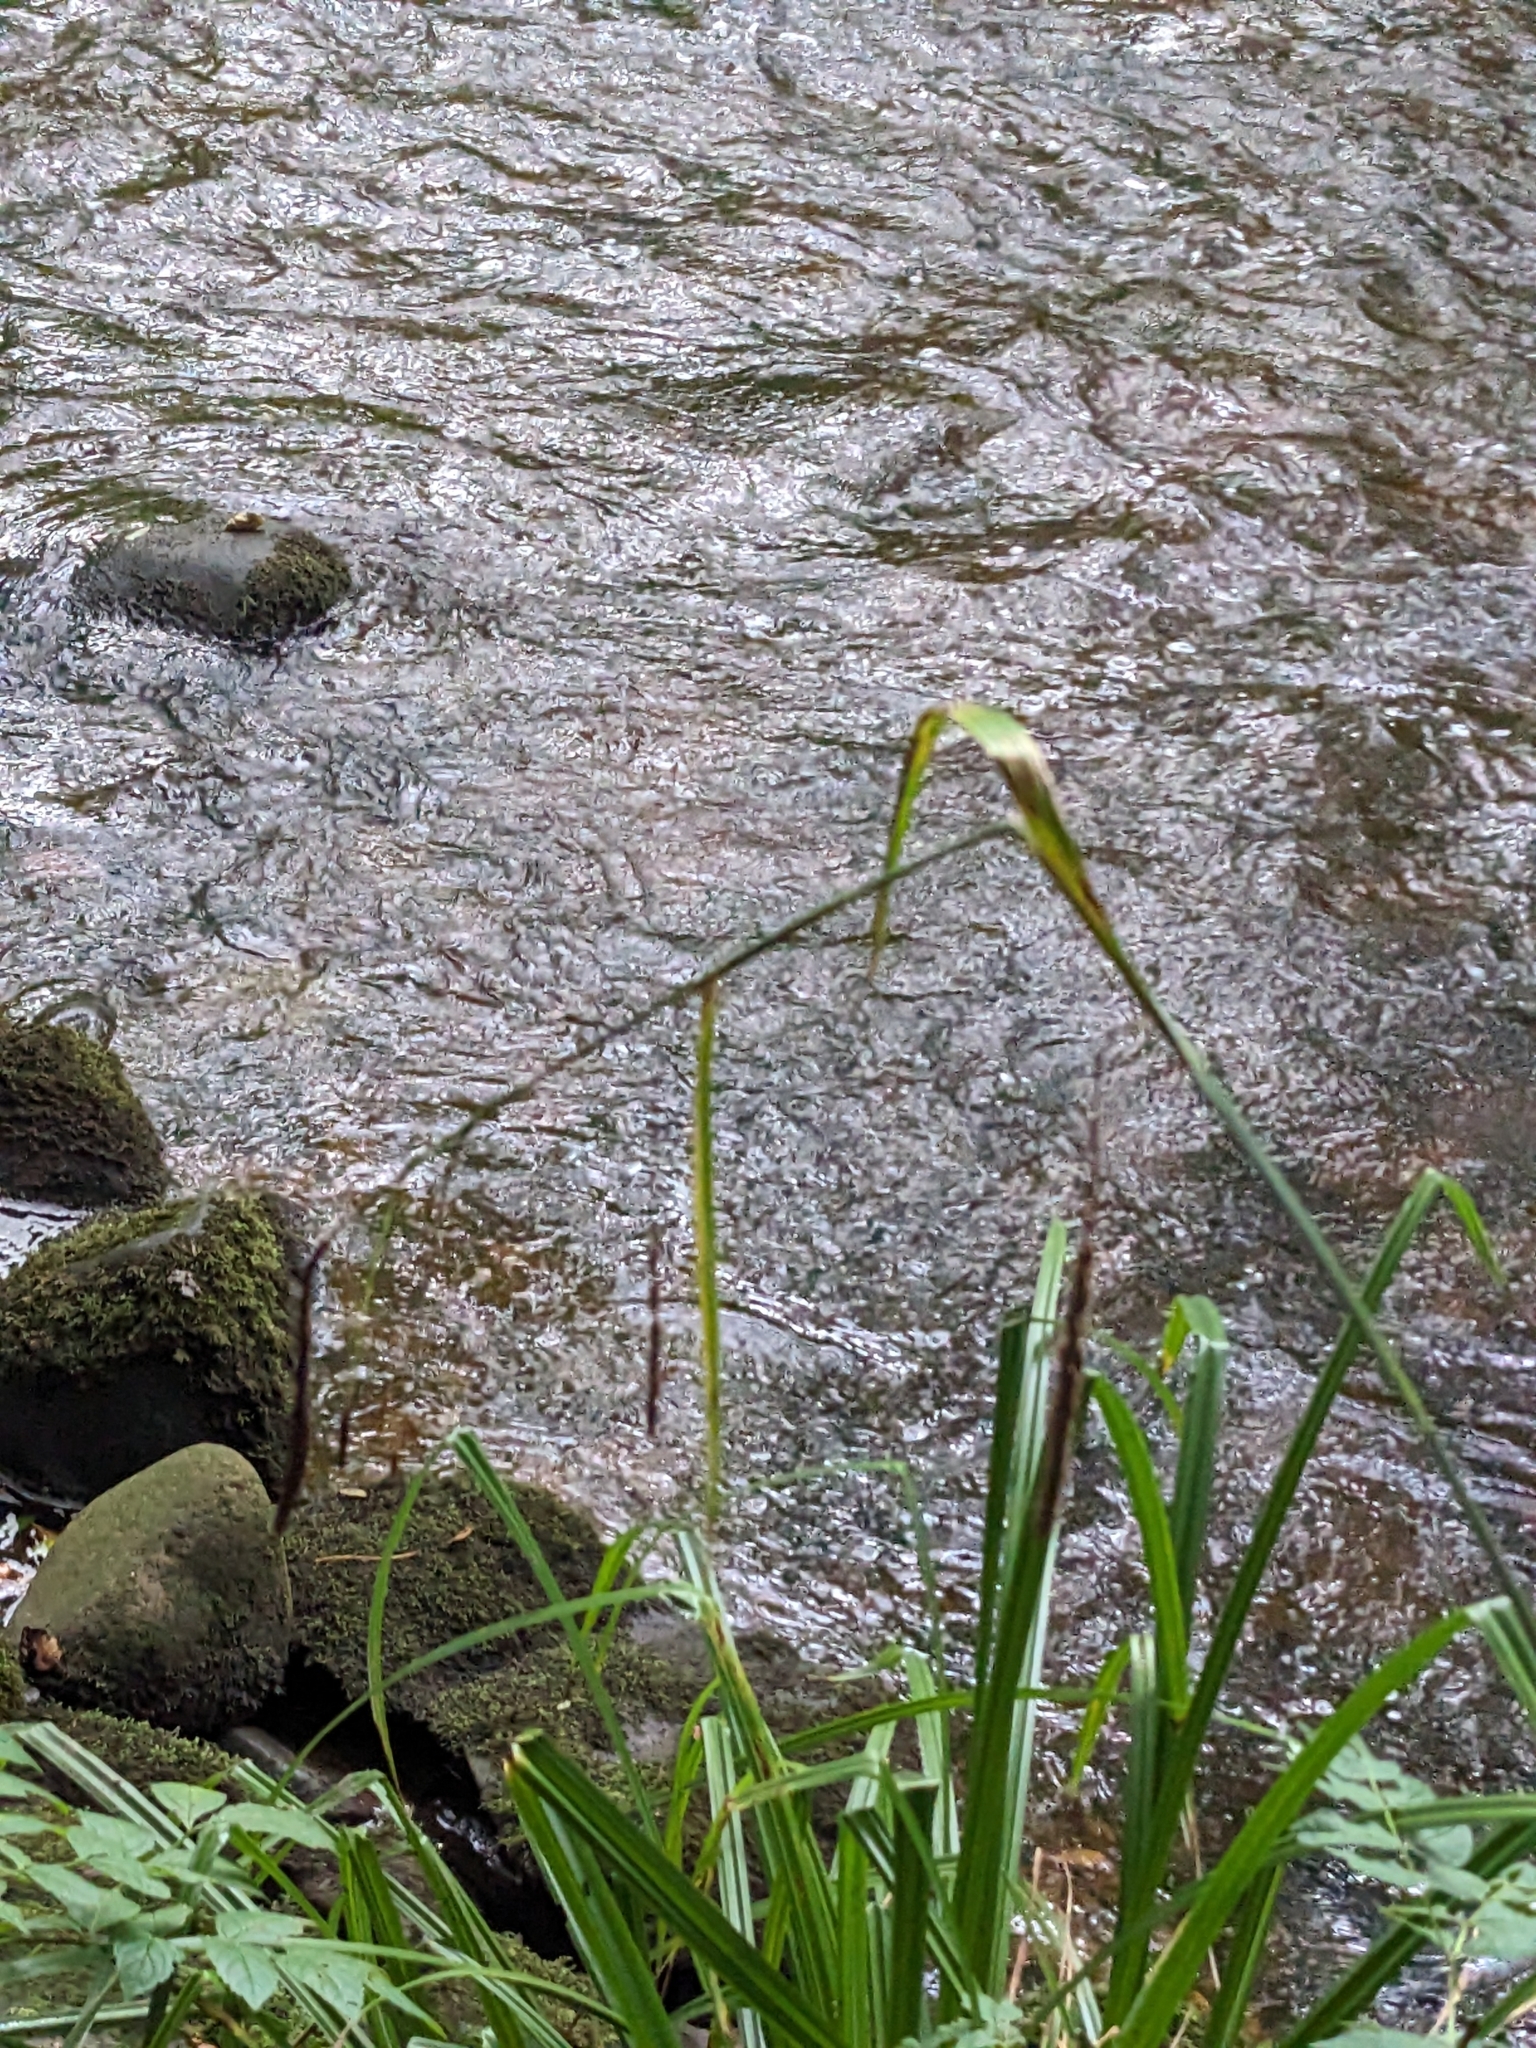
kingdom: Plantae
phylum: Tracheophyta
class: Liliopsida
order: Poales
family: Cyperaceae
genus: Carex
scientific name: Carex pendula
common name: Pendulous sedge
